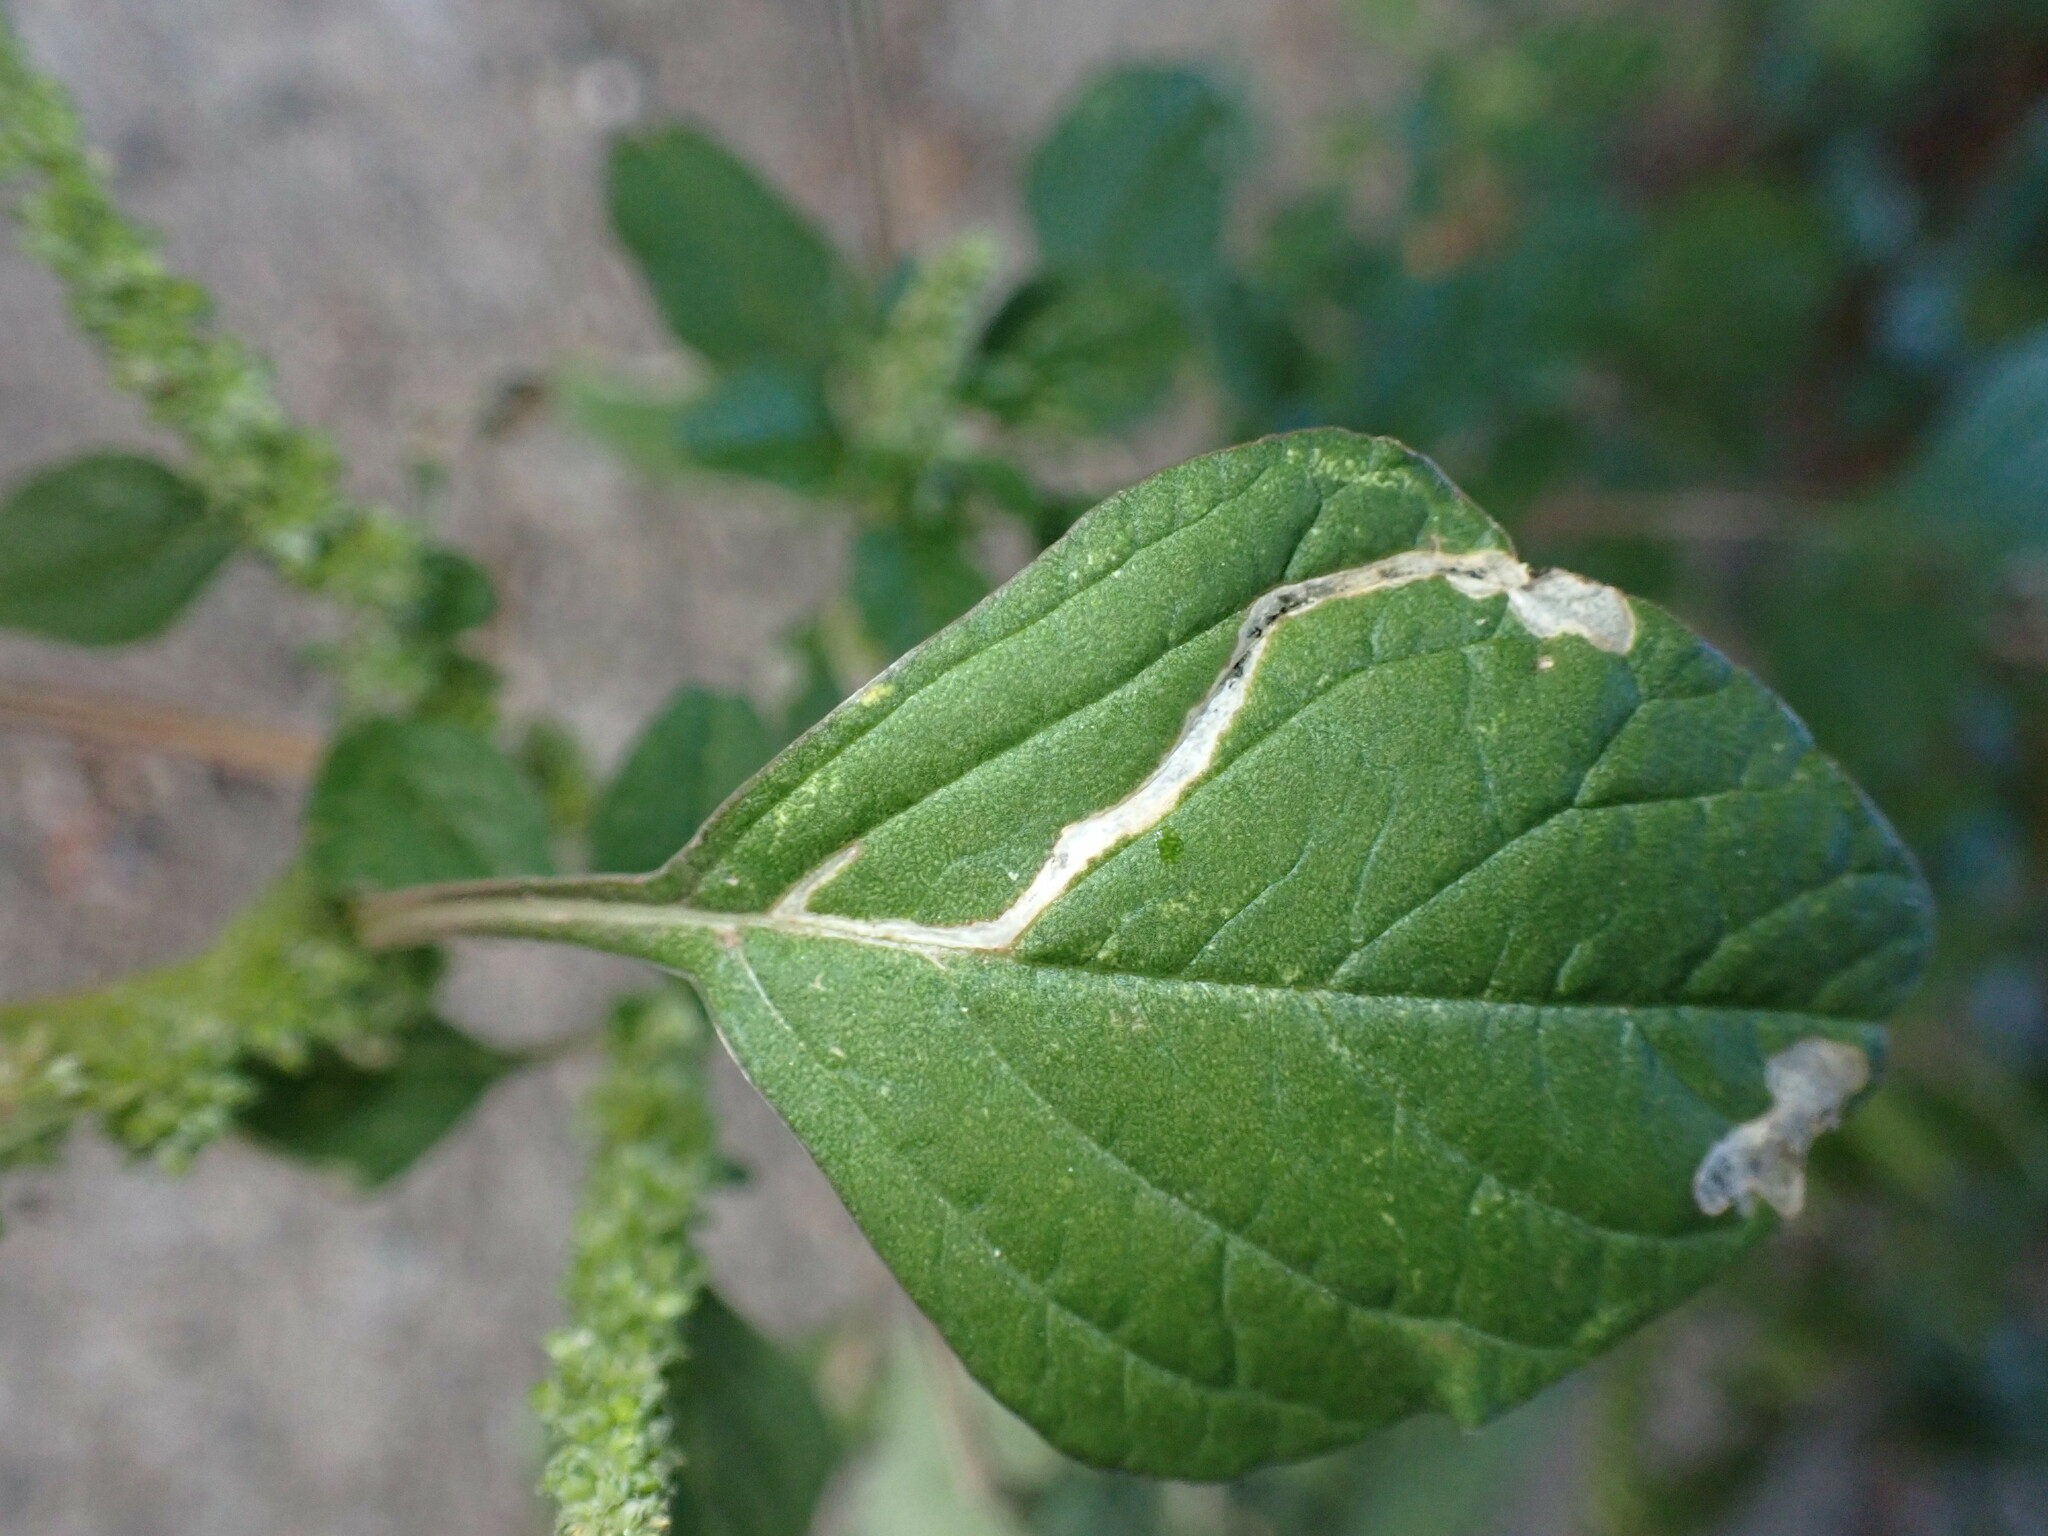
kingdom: Animalia
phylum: Arthropoda
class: Insecta
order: Diptera
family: Anthomyiidae
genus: Pegomya
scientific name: Pegomya wygodzinskyi
